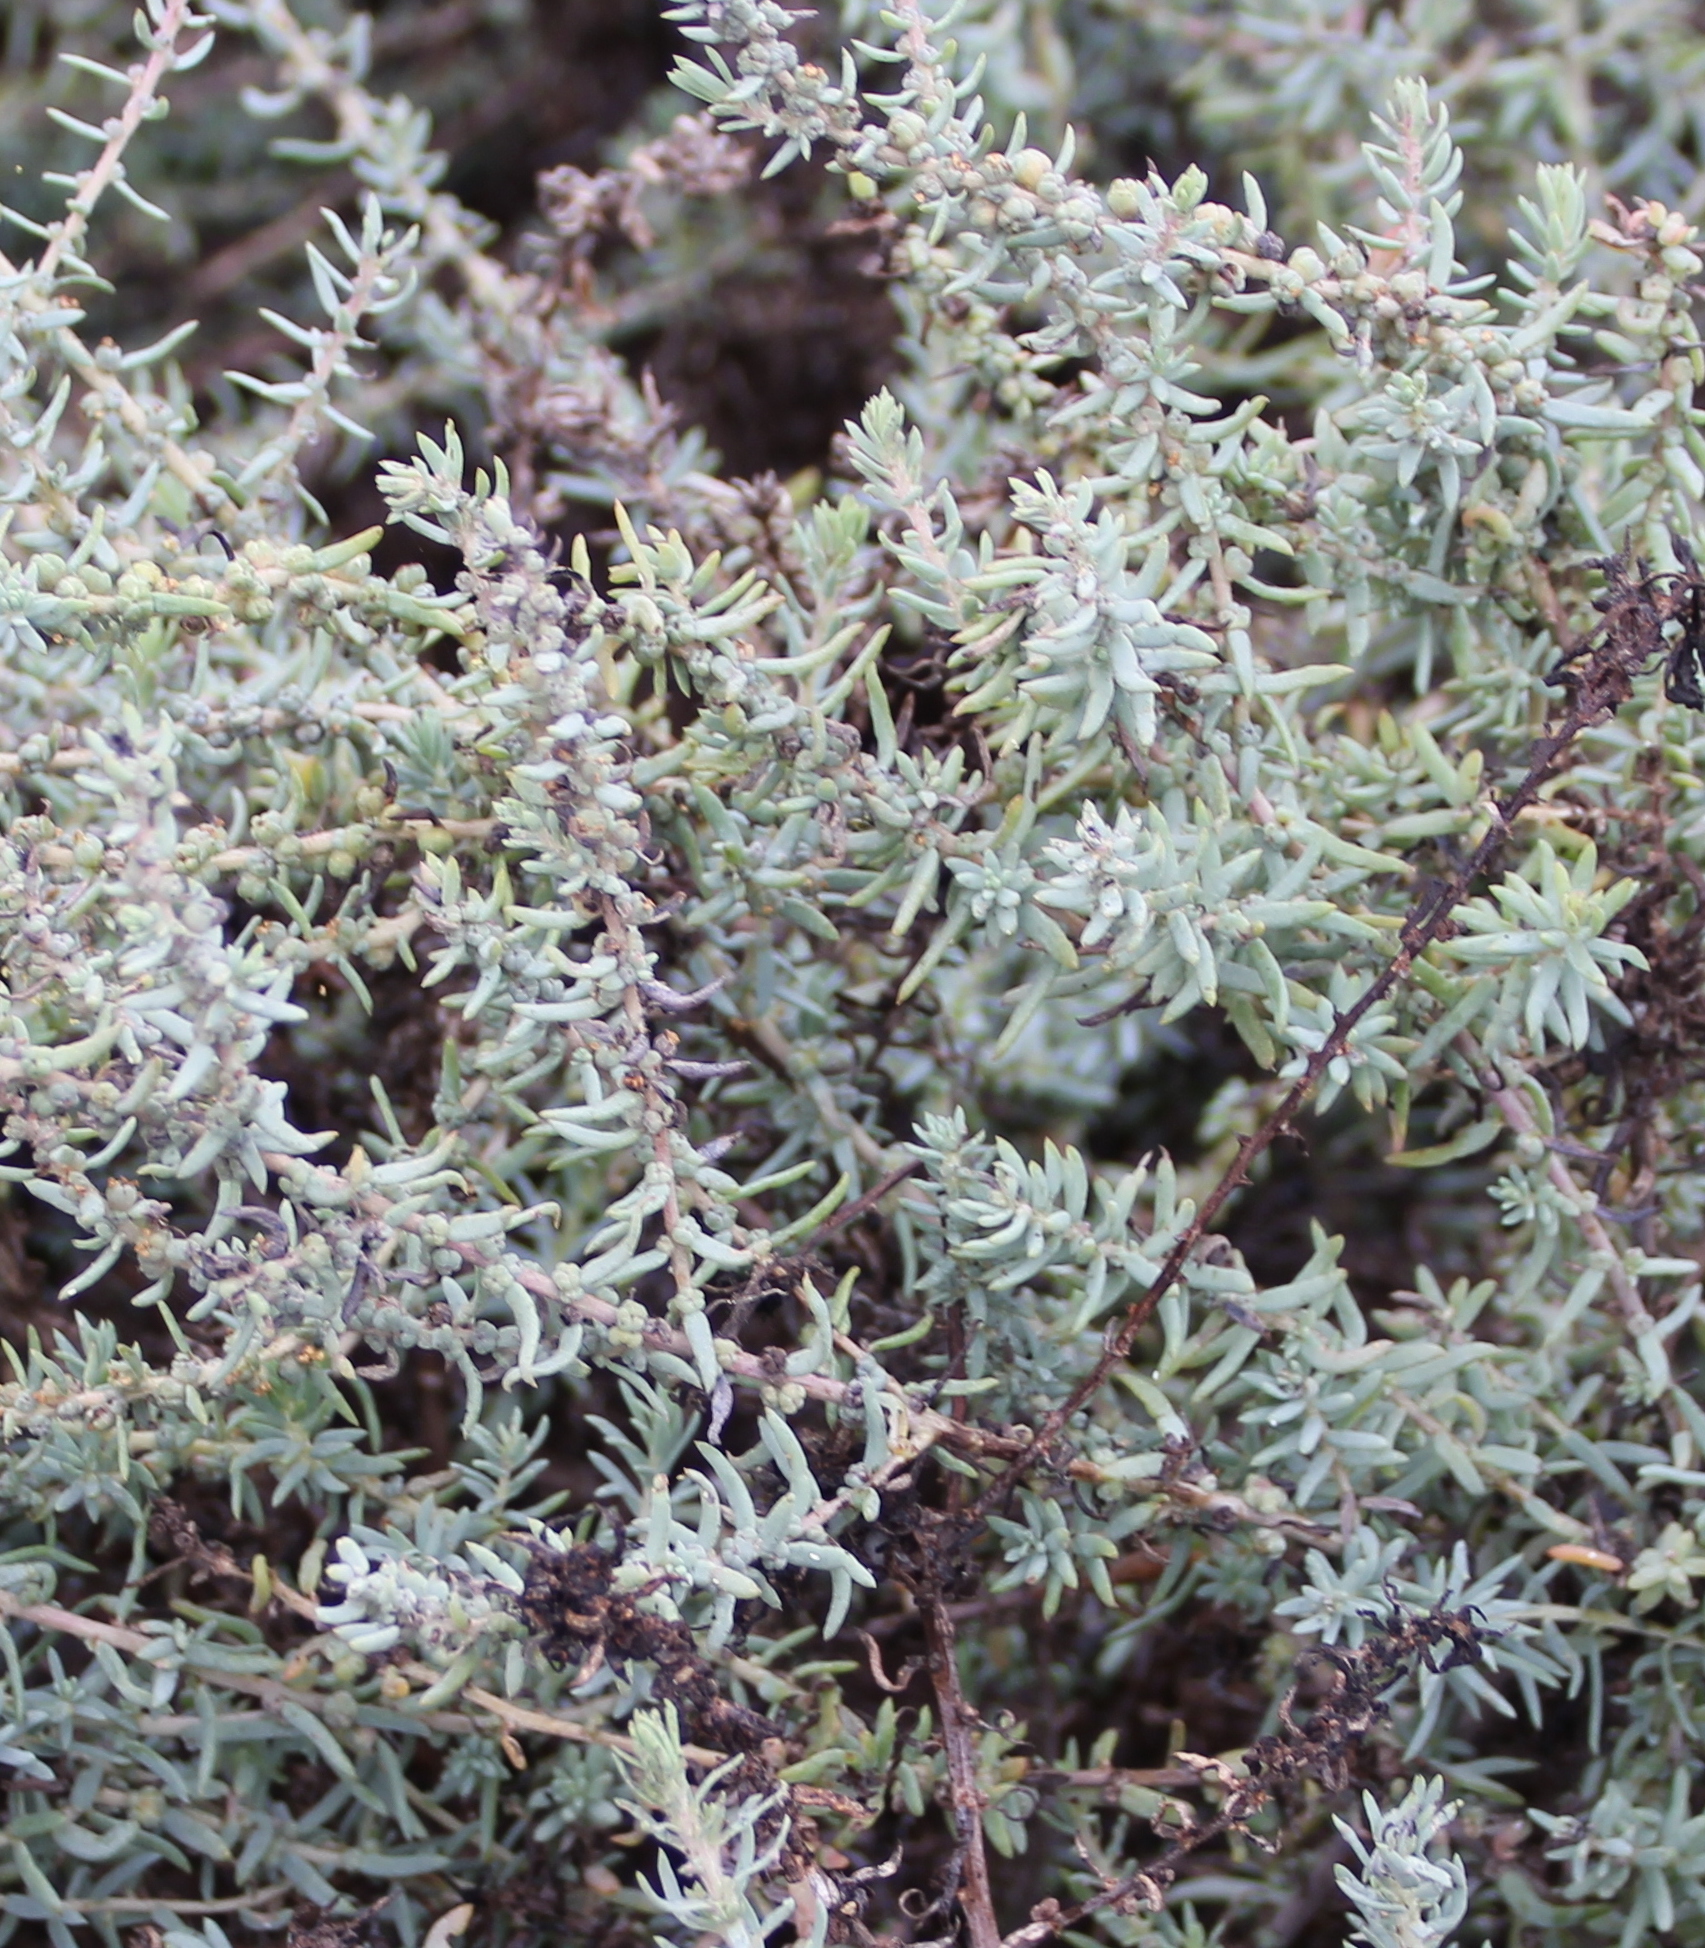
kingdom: Plantae
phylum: Tracheophyta
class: Magnoliopsida
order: Caryophyllales
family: Amaranthaceae
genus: Suaeda
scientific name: Suaeda taxifolia
